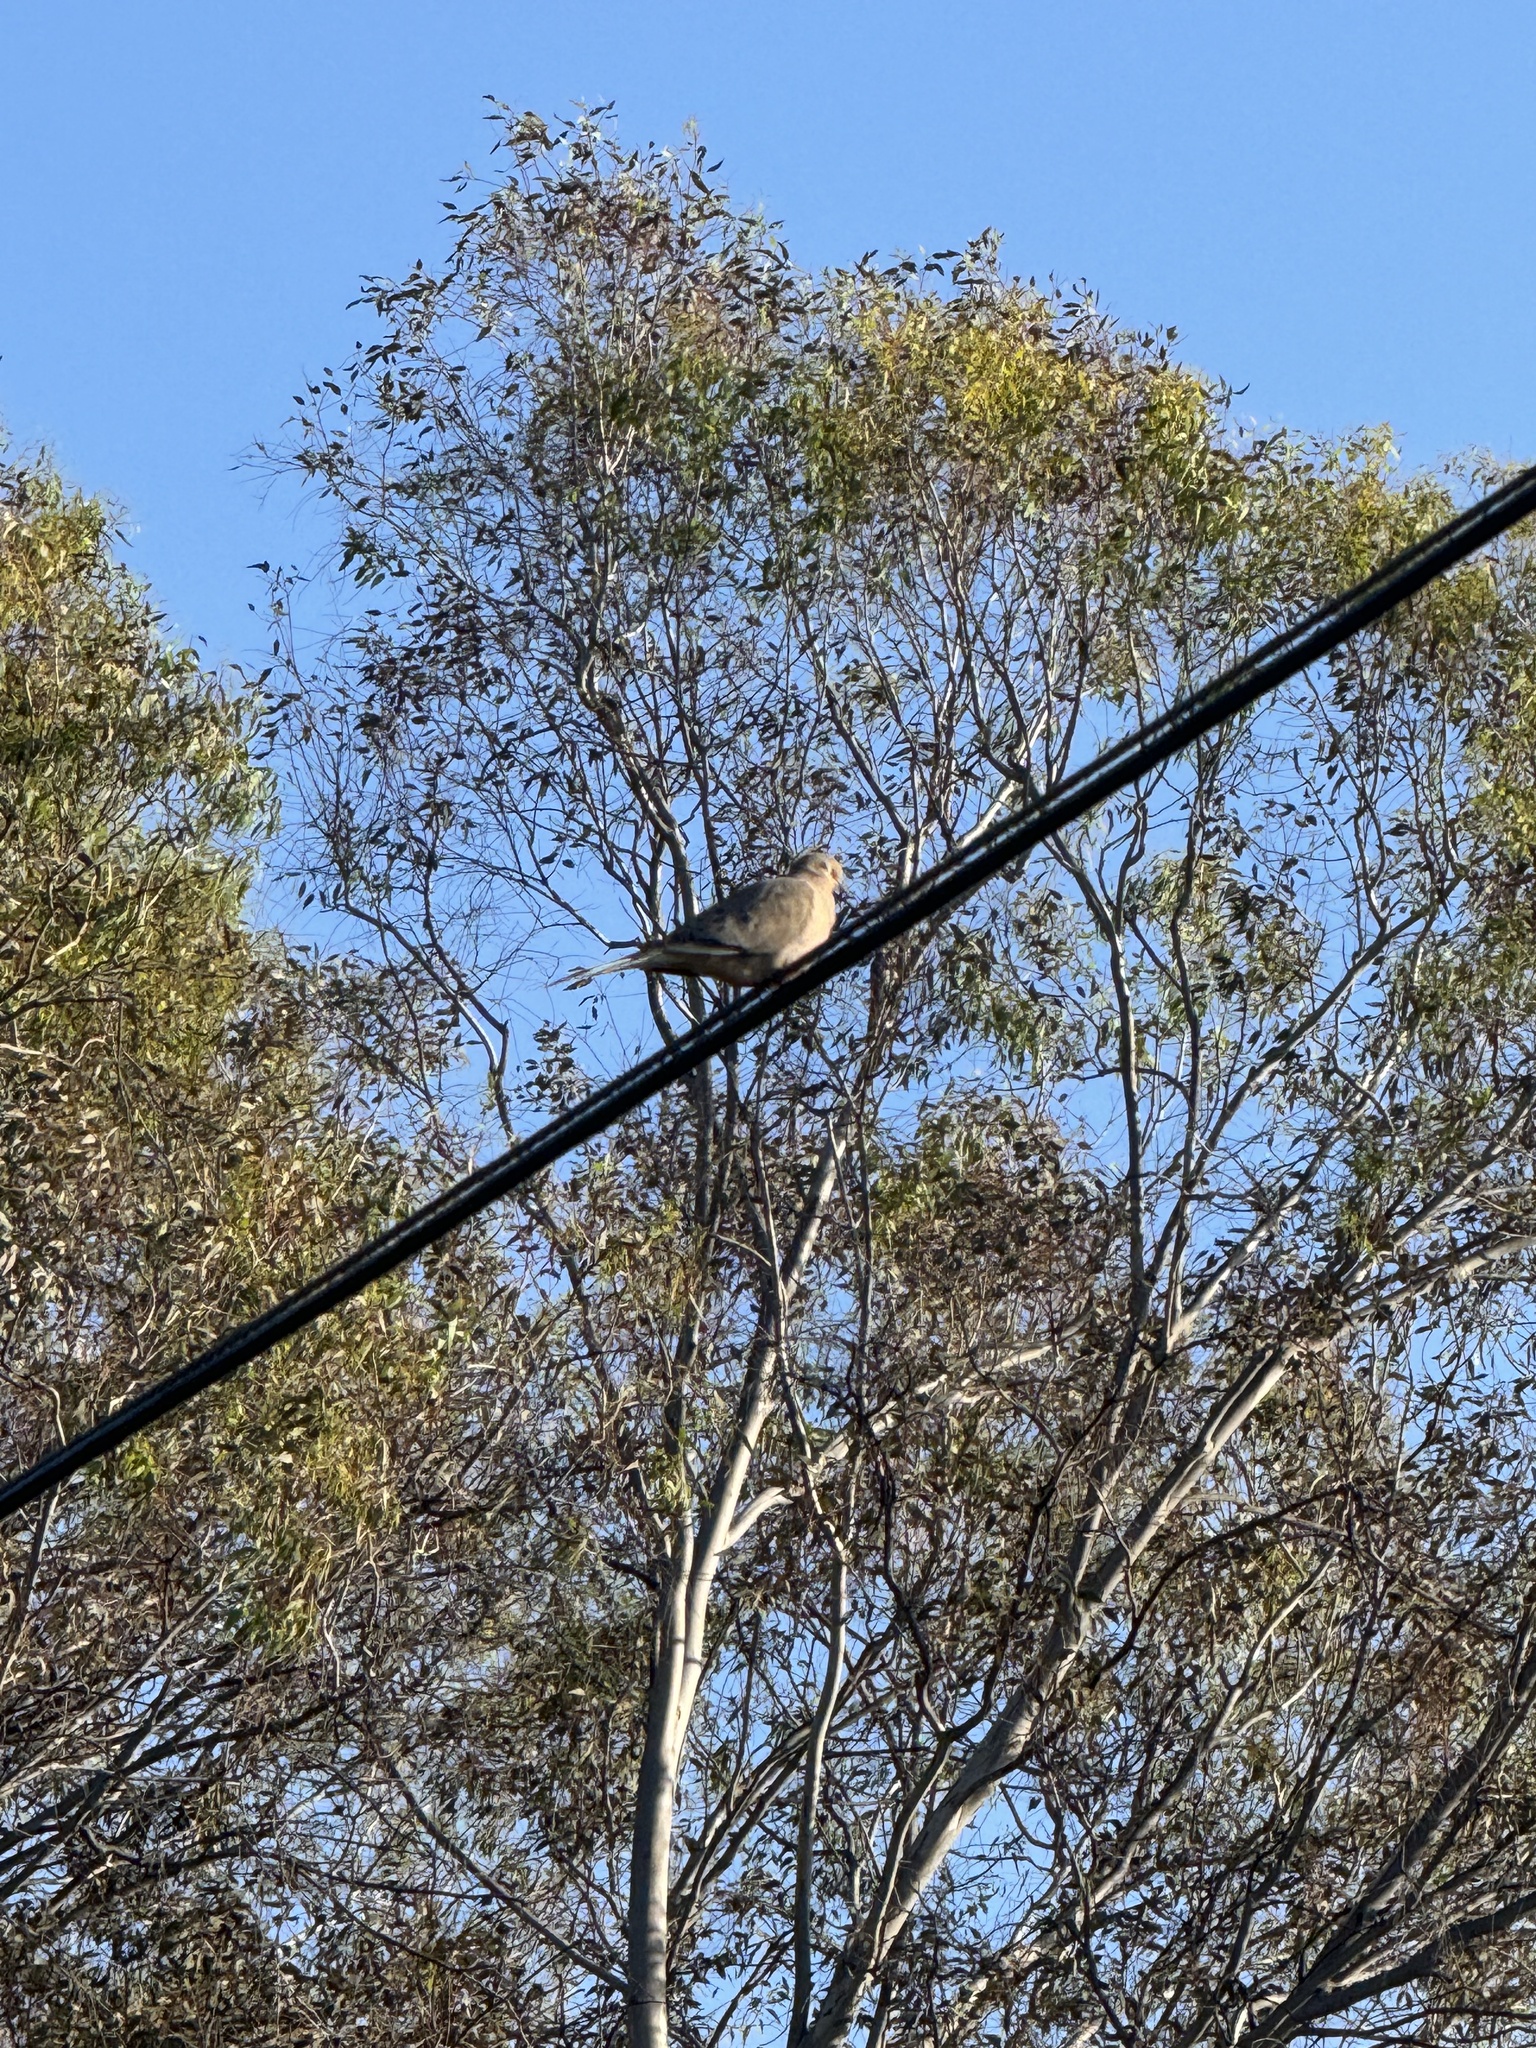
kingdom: Animalia
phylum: Chordata
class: Aves
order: Columbiformes
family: Columbidae
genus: Zenaida
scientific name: Zenaida macroura
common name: Mourning dove
